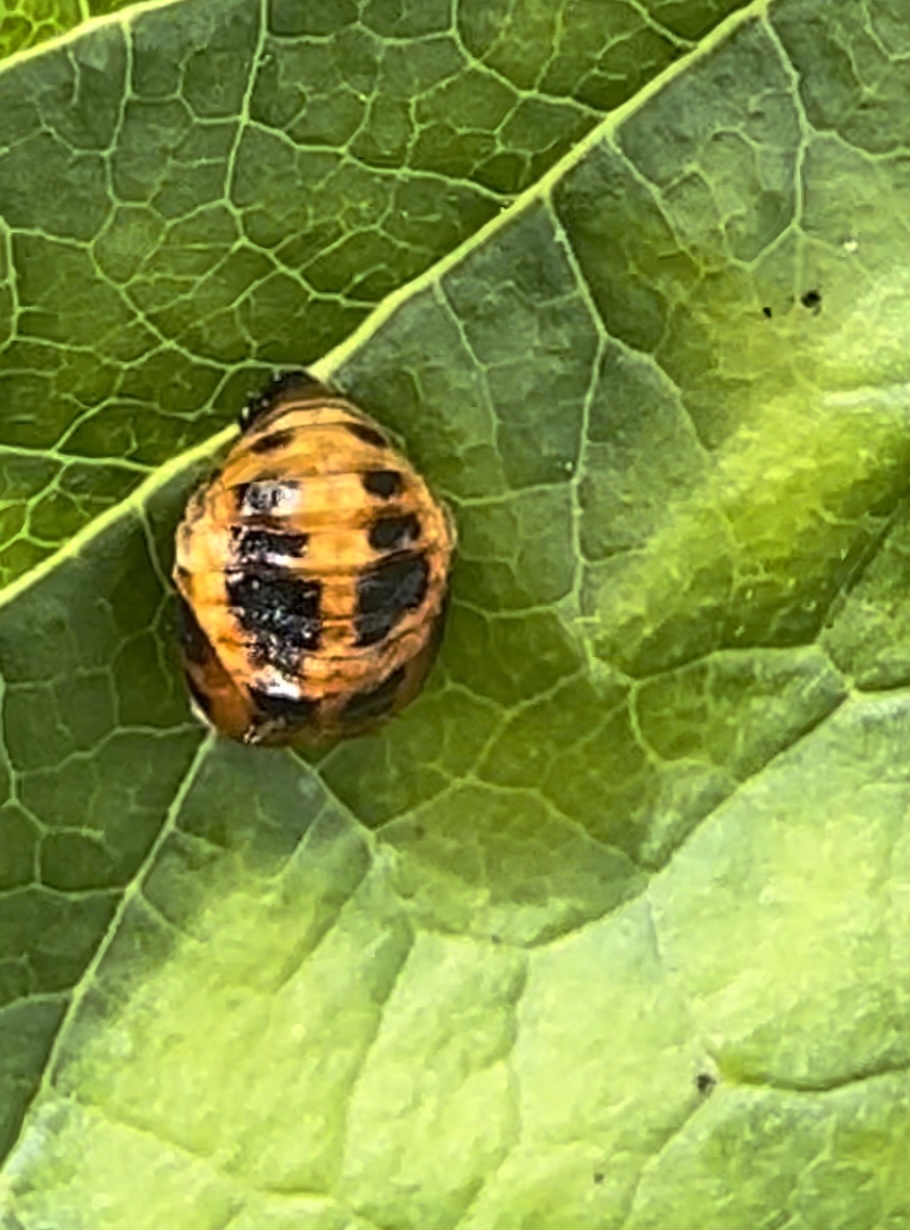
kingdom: Animalia
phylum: Arthropoda
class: Insecta
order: Coleoptera
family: Coccinellidae
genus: Harmonia
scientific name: Harmonia axyridis
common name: Harlequin ladybird
